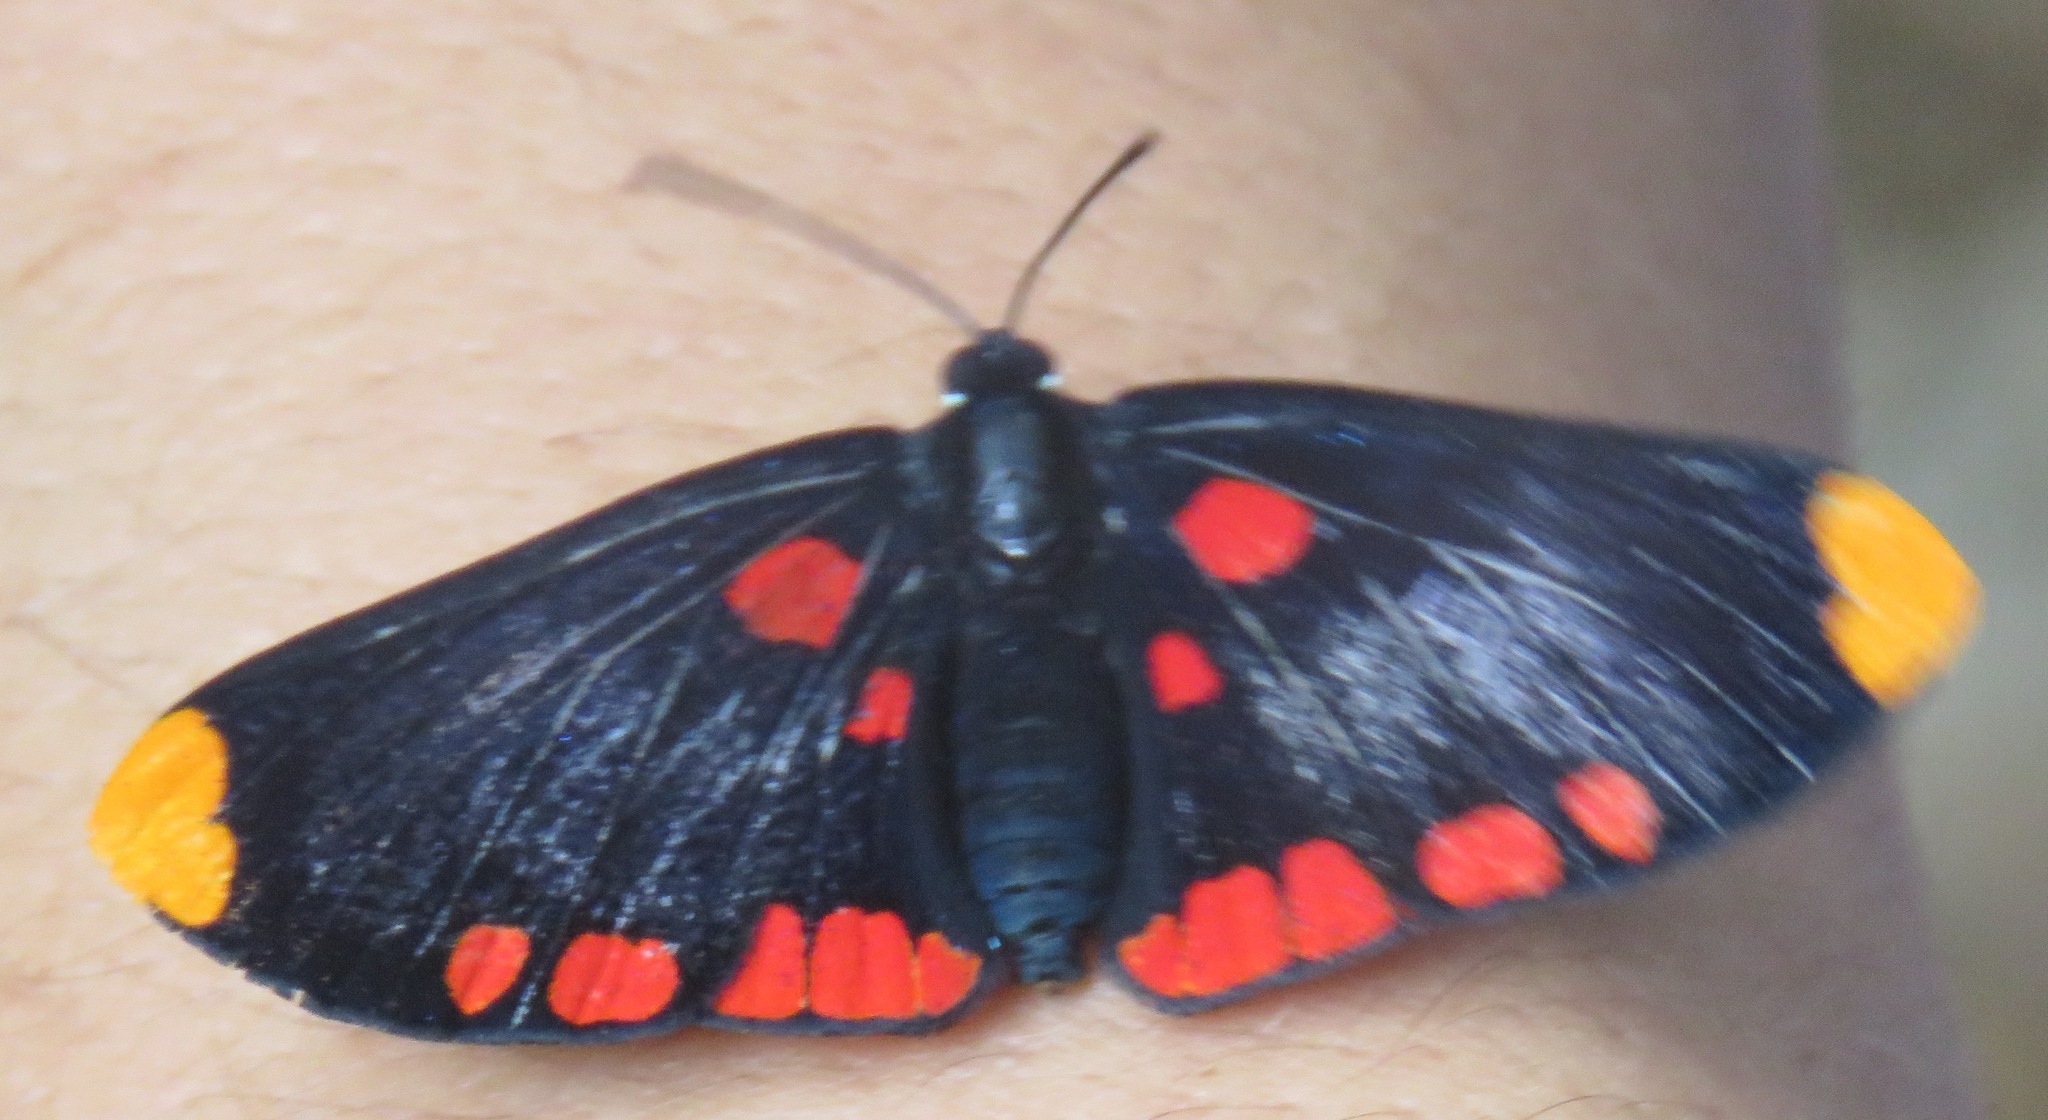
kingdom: Animalia
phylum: Arthropoda
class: Insecta
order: Lepidoptera
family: Lycaenidae
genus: Melanis
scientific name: Melanis pixe
